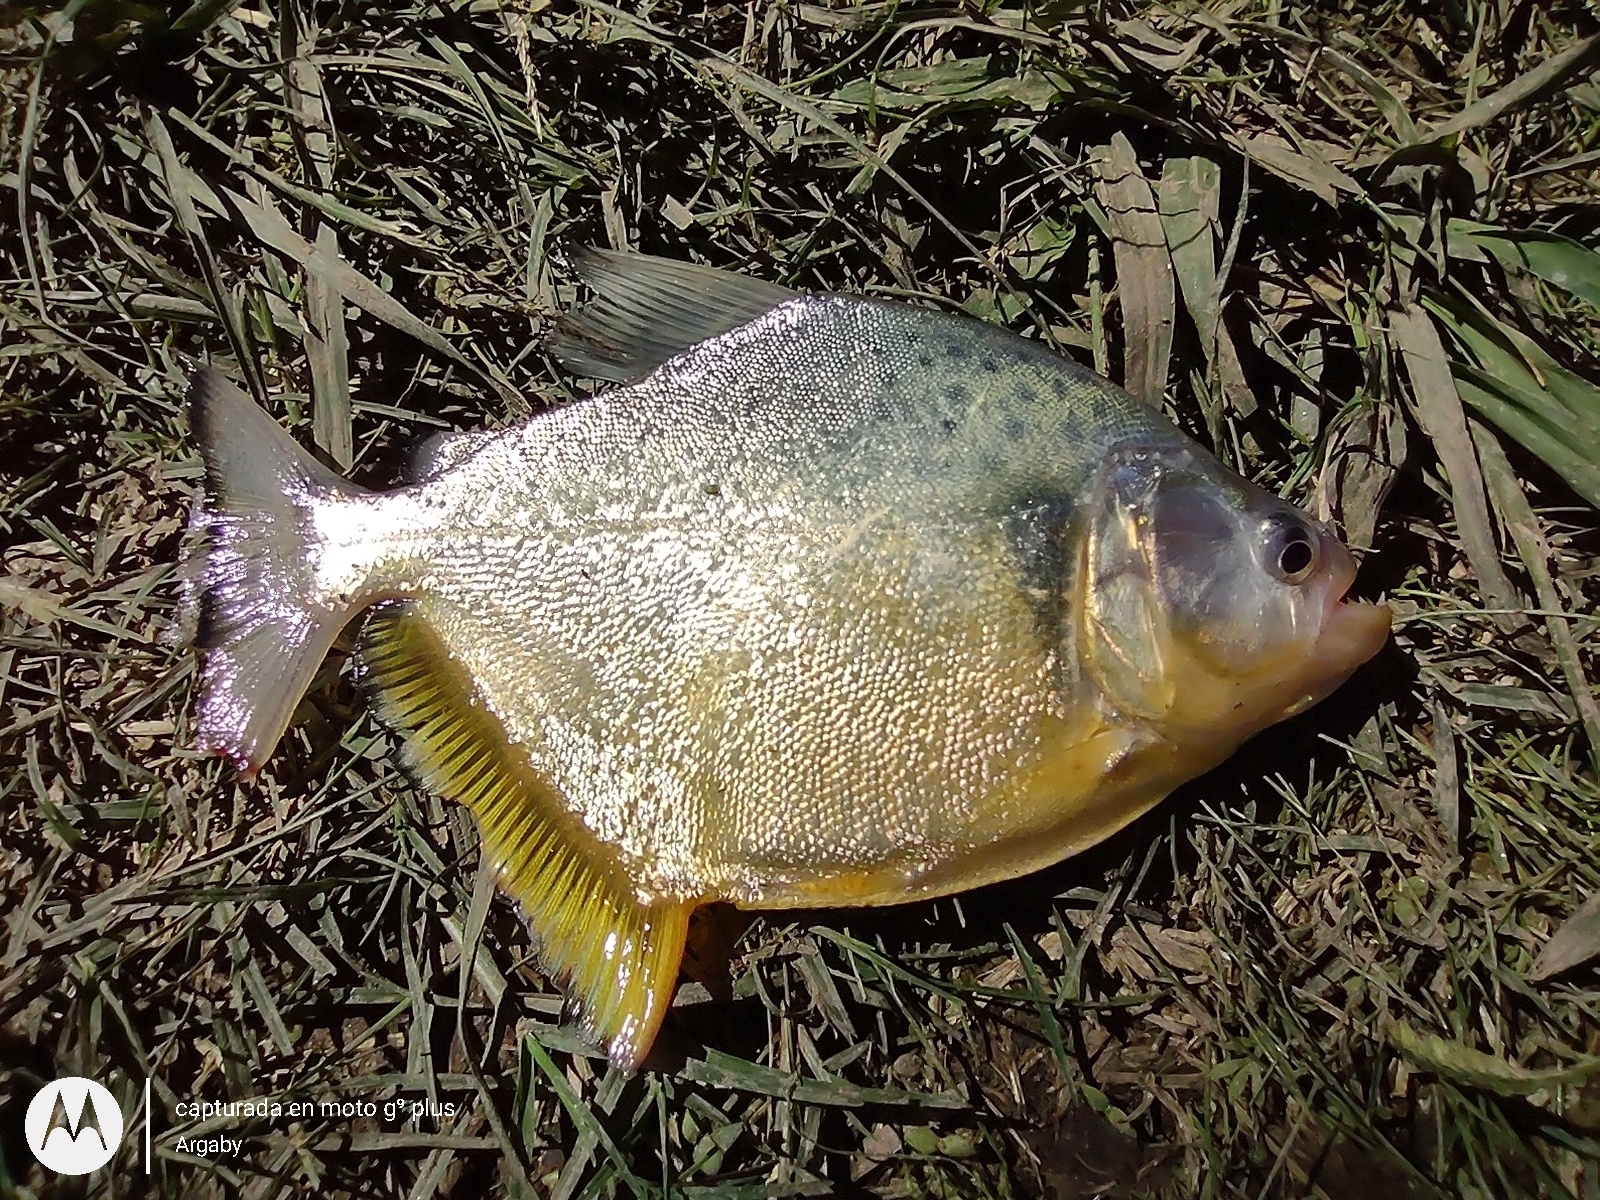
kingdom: Animalia
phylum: Chordata
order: Characiformes
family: Serrasalmidae
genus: Serrasalmus
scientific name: Serrasalmus maculatus
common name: Speckled piranha
